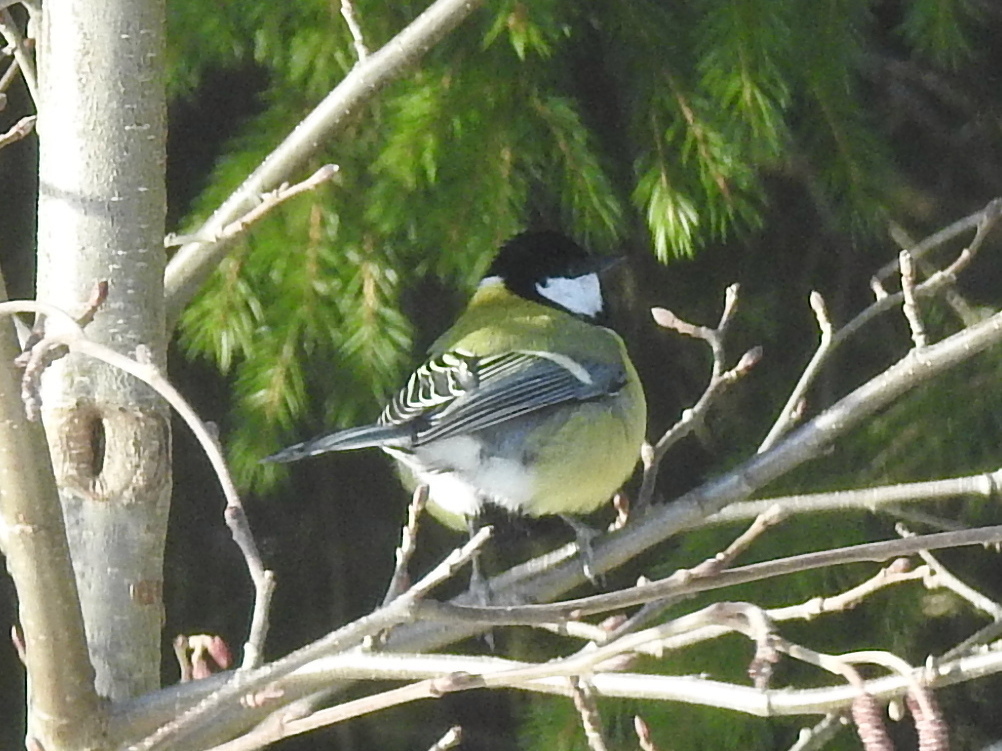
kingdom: Animalia
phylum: Chordata
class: Aves
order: Passeriformes
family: Paridae
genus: Parus
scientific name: Parus major
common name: Great tit
